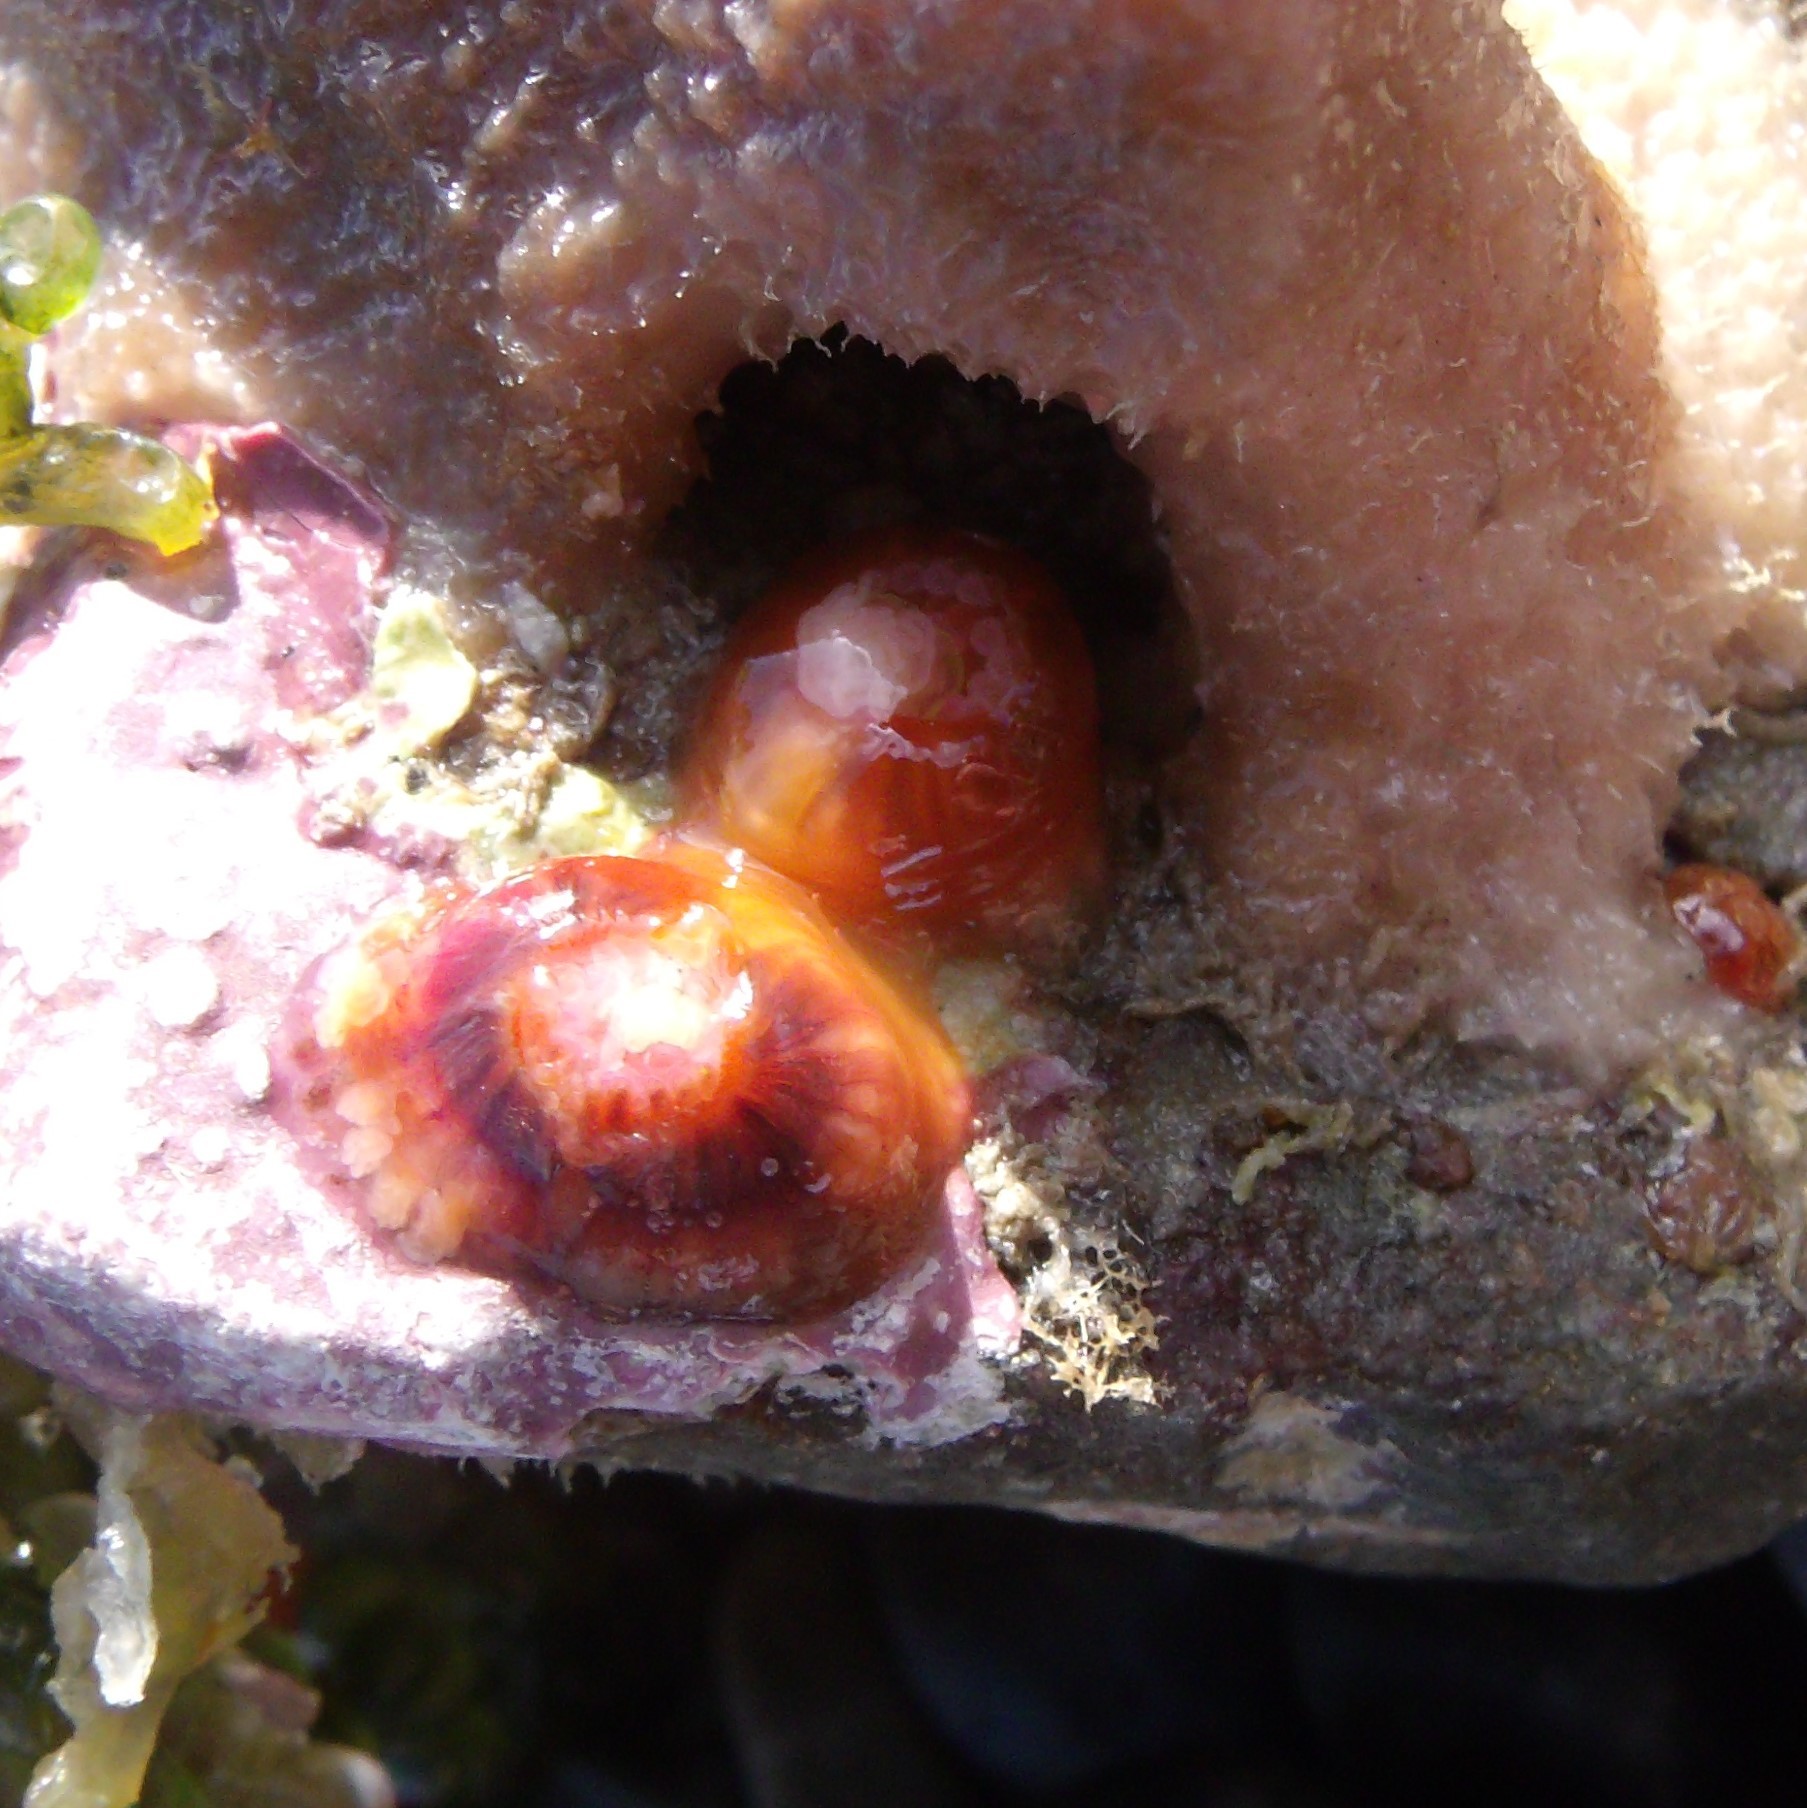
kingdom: Animalia
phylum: Cnidaria
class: Anthozoa
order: Corallimorpharia
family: Corallimorphidae
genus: Corynactis
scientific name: Corynactis australis
